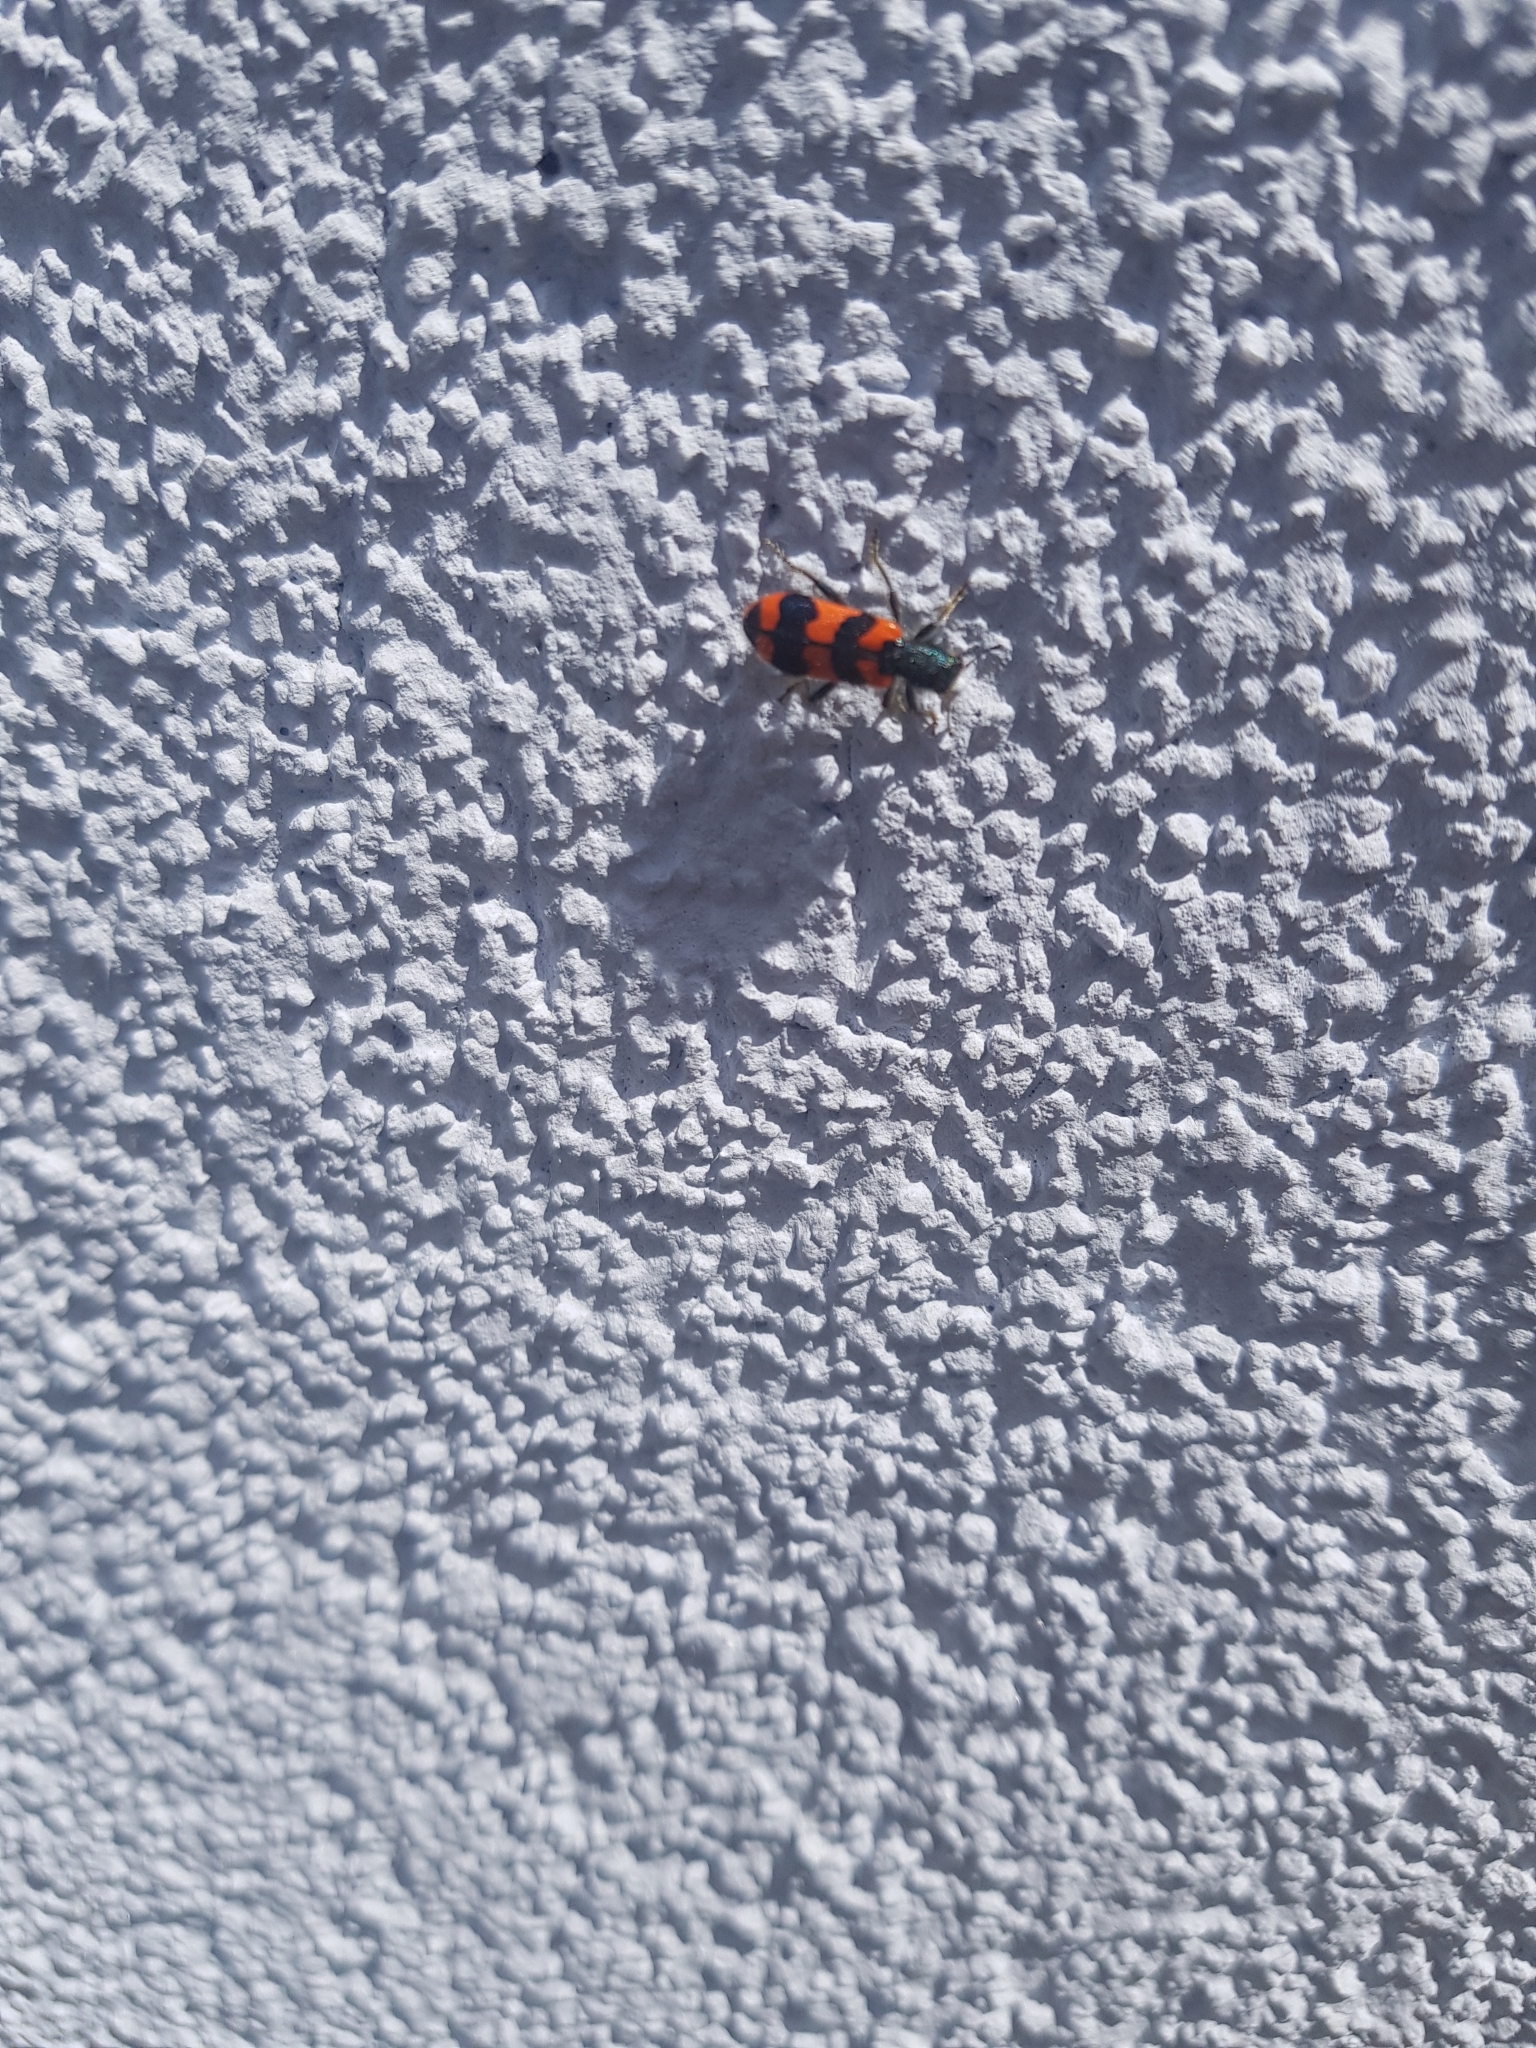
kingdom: Animalia
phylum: Arthropoda
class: Insecta
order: Coleoptera
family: Cleridae
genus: Trichodes
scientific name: Trichodes alvearius
